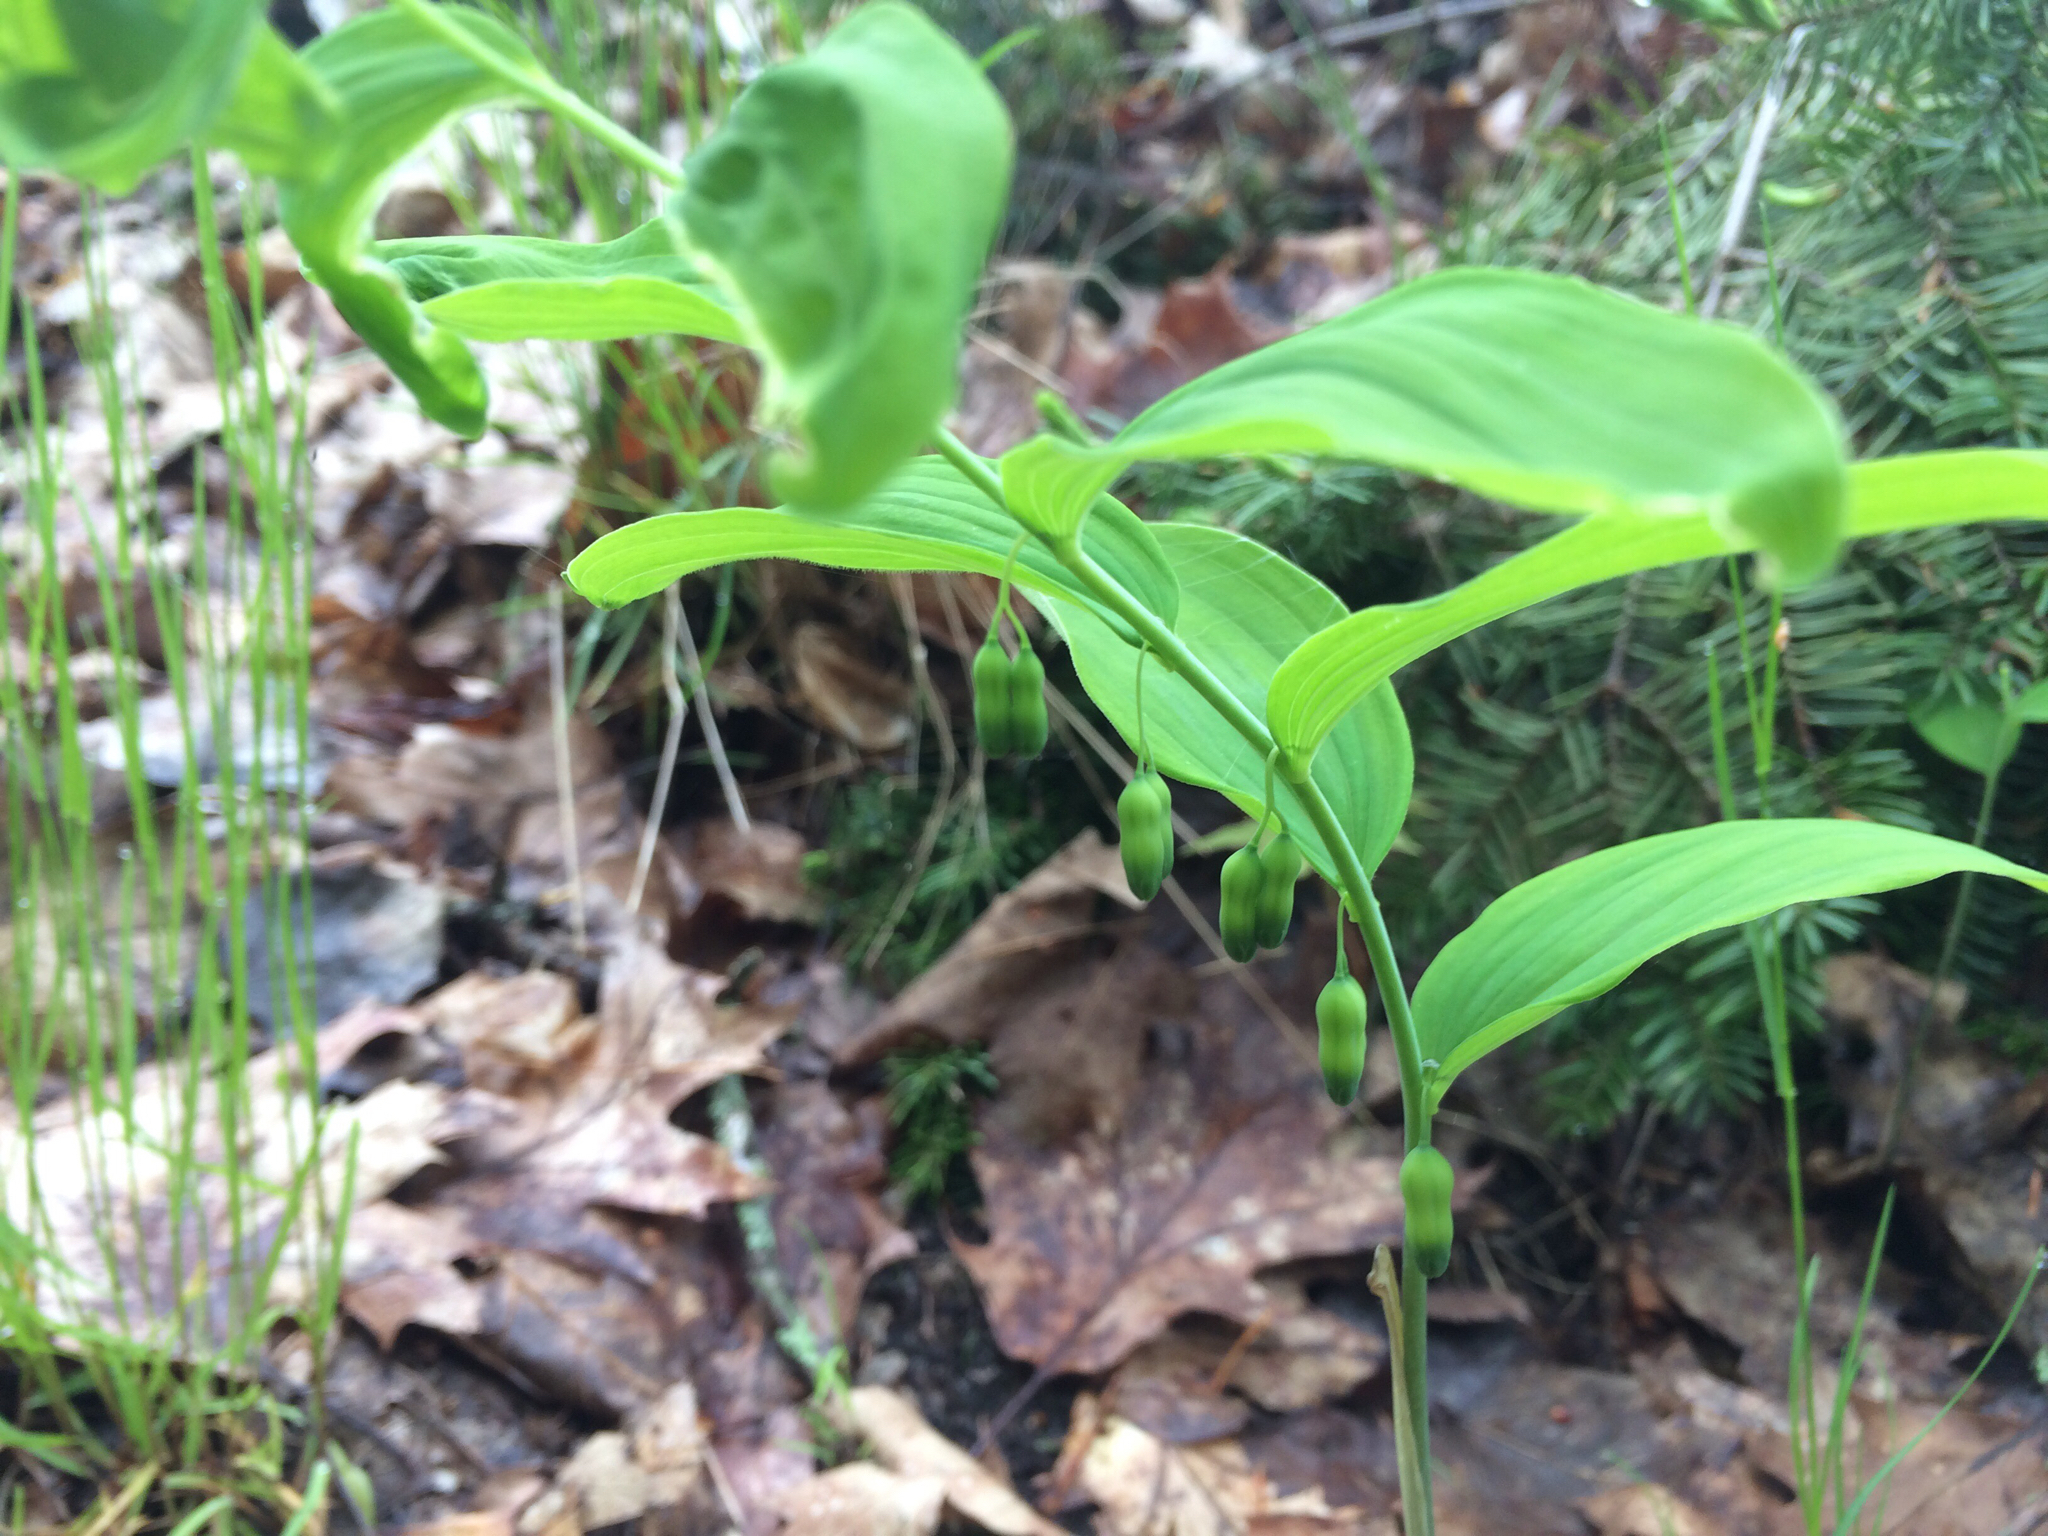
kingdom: Plantae
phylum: Tracheophyta
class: Liliopsida
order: Asparagales
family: Asparagaceae
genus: Polygonatum
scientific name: Polygonatum pubescens
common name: Downy solomon's seal
